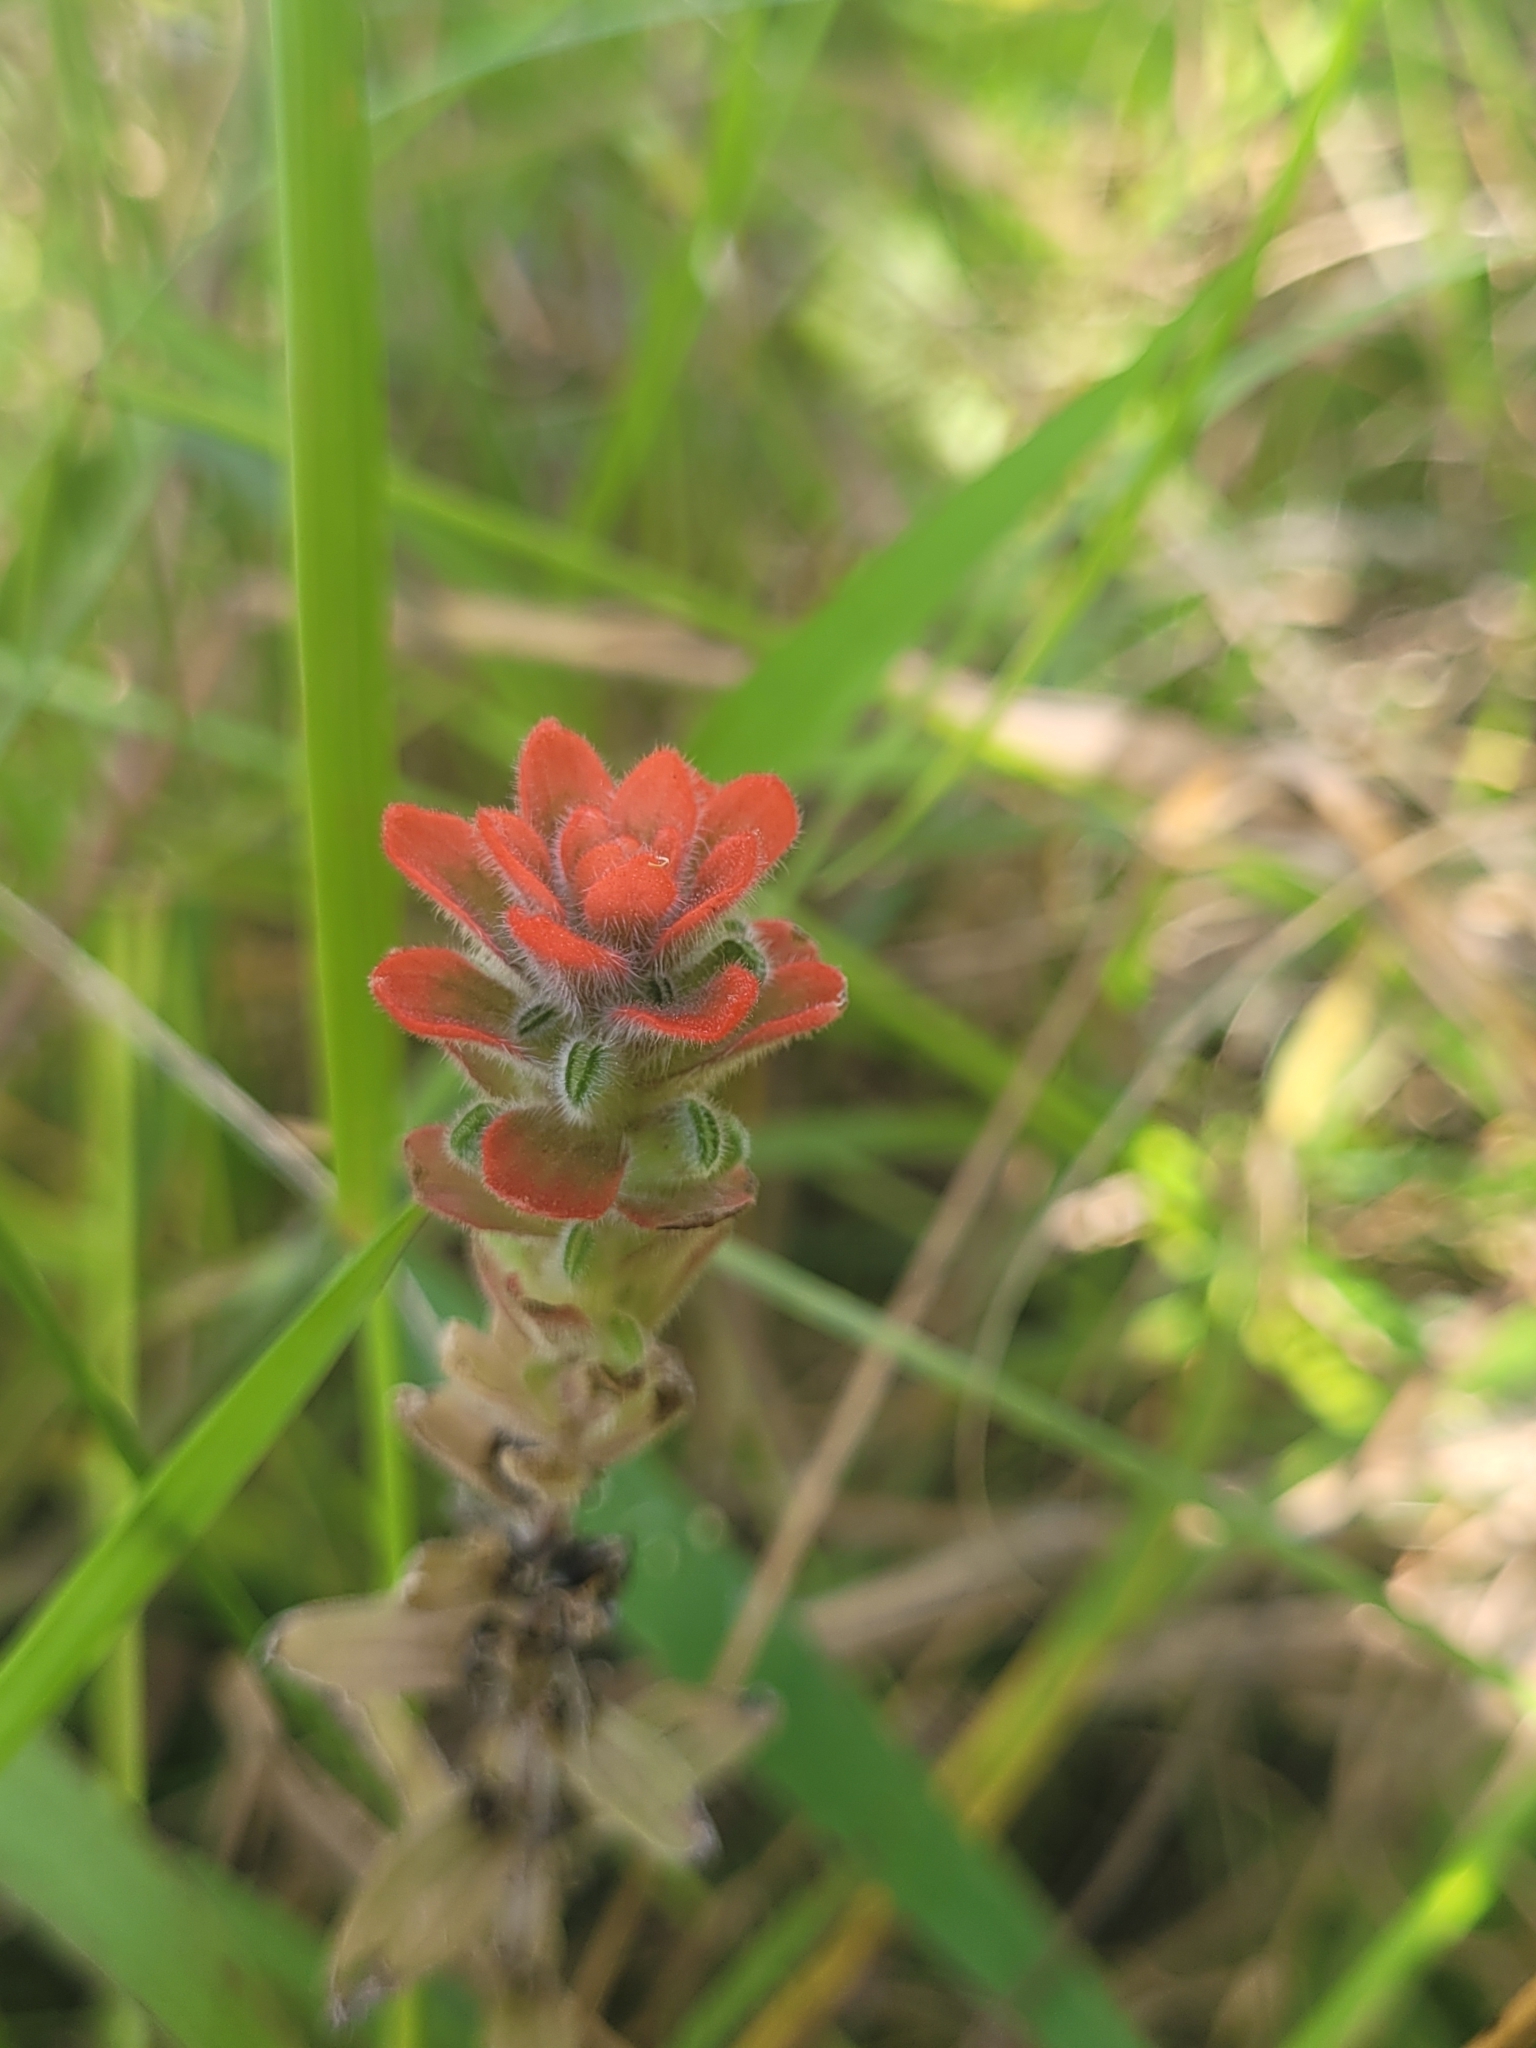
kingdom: Plantae
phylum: Tracheophyta
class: Magnoliopsida
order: Lamiales
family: Orobanchaceae
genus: Castilleja
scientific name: Castilleja arvensis
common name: Indian paintbrush
